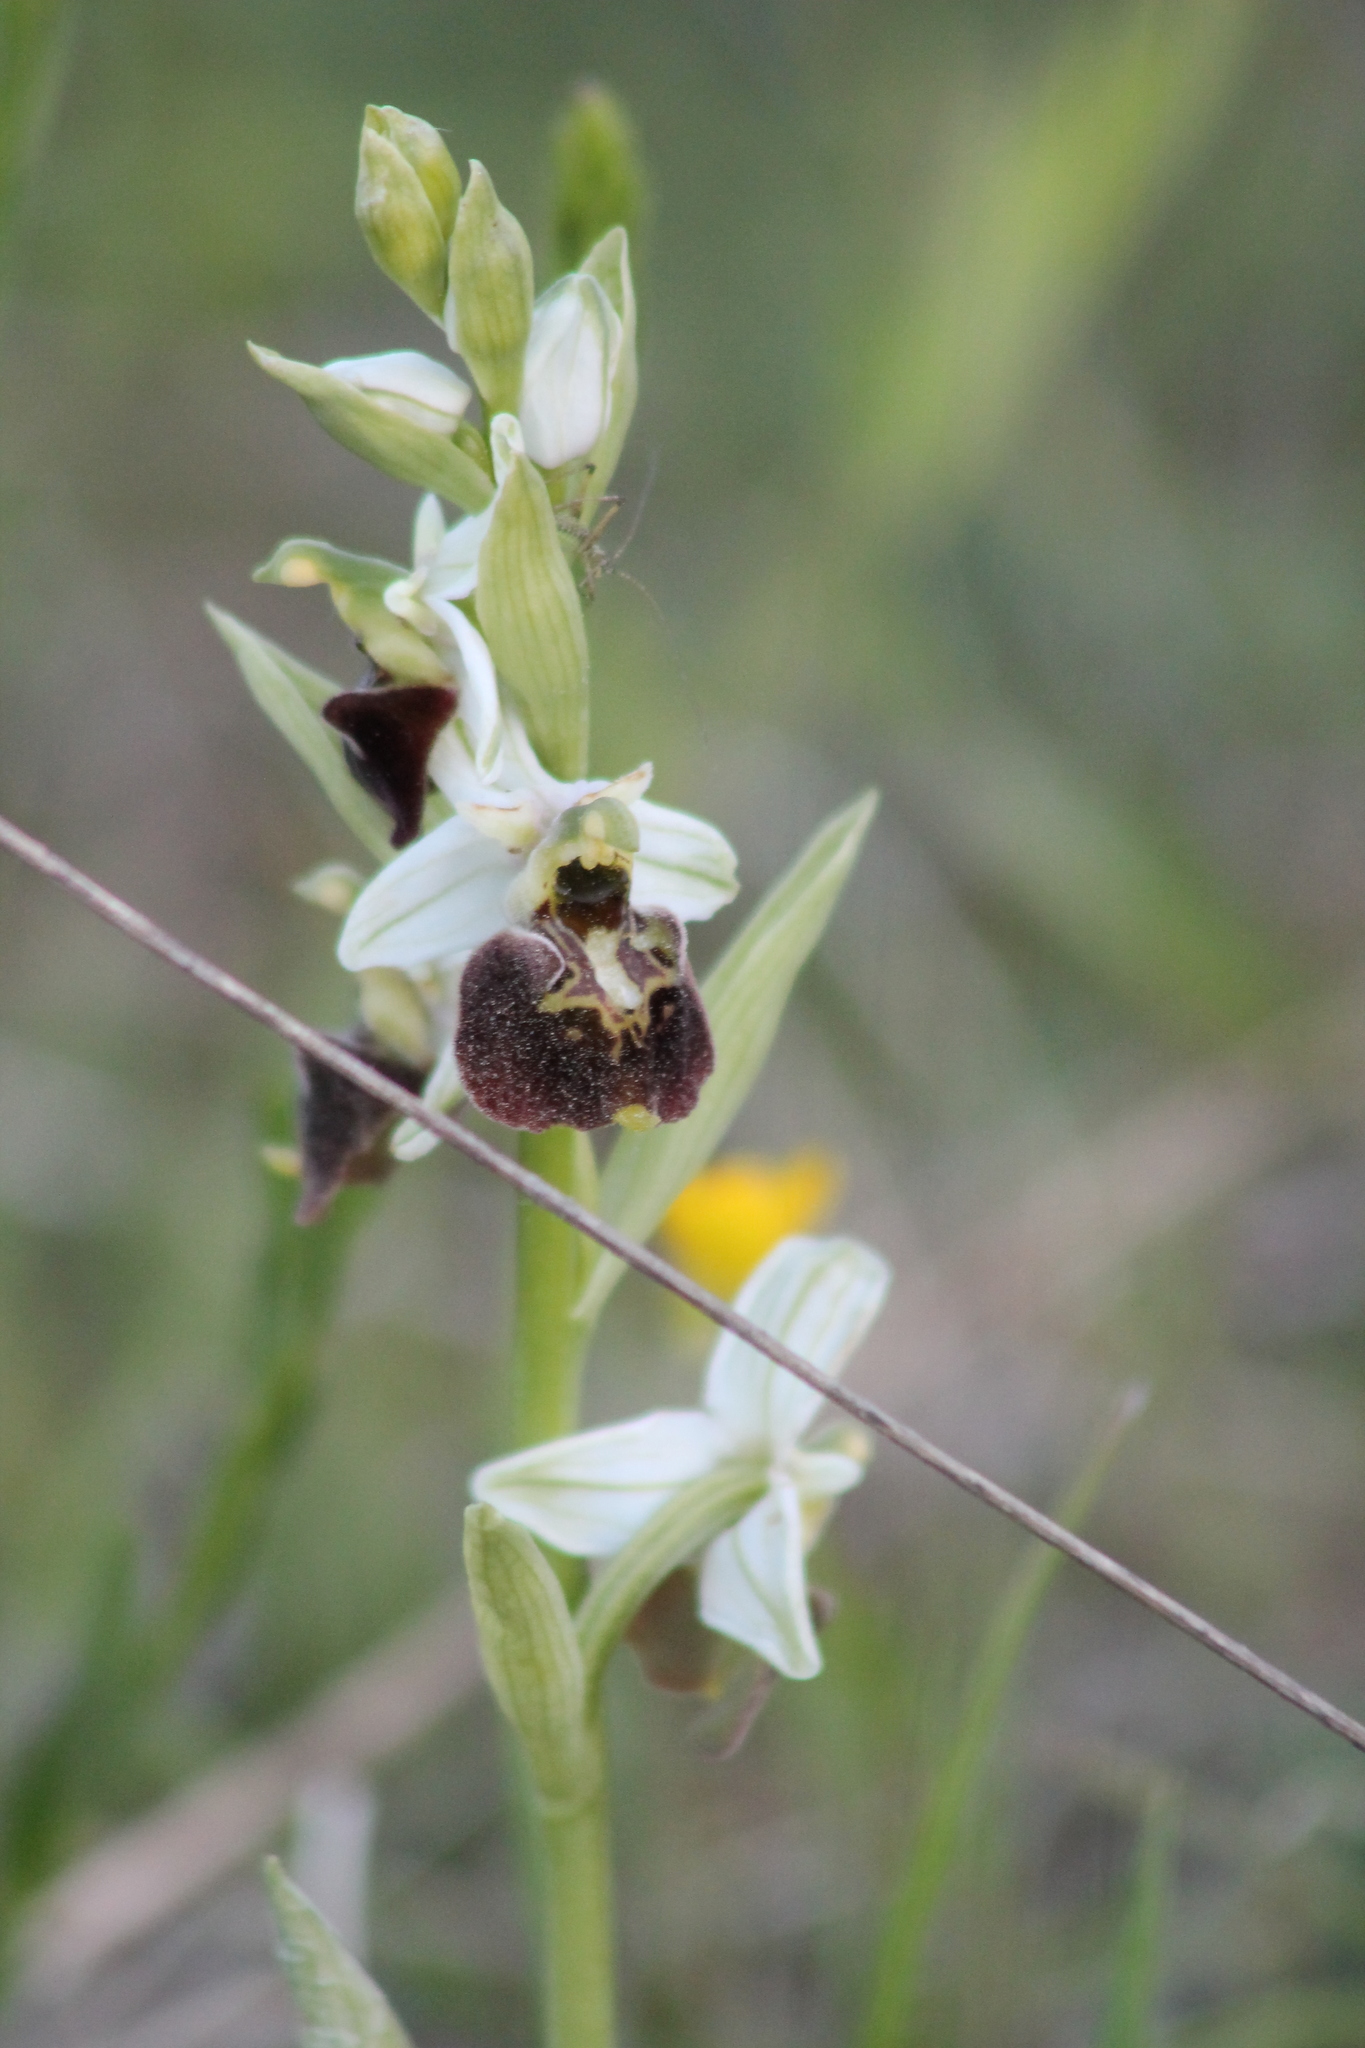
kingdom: Plantae
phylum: Tracheophyta
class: Liliopsida
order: Asparagales
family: Orchidaceae
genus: Ophrys
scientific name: Ophrys holosericea
